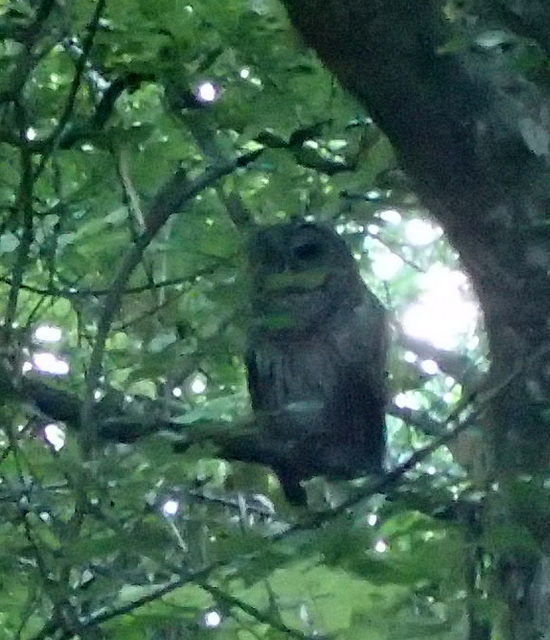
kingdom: Animalia
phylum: Chordata
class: Aves
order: Strigiformes
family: Strigidae
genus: Strix
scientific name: Strix varia
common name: Barred owl
